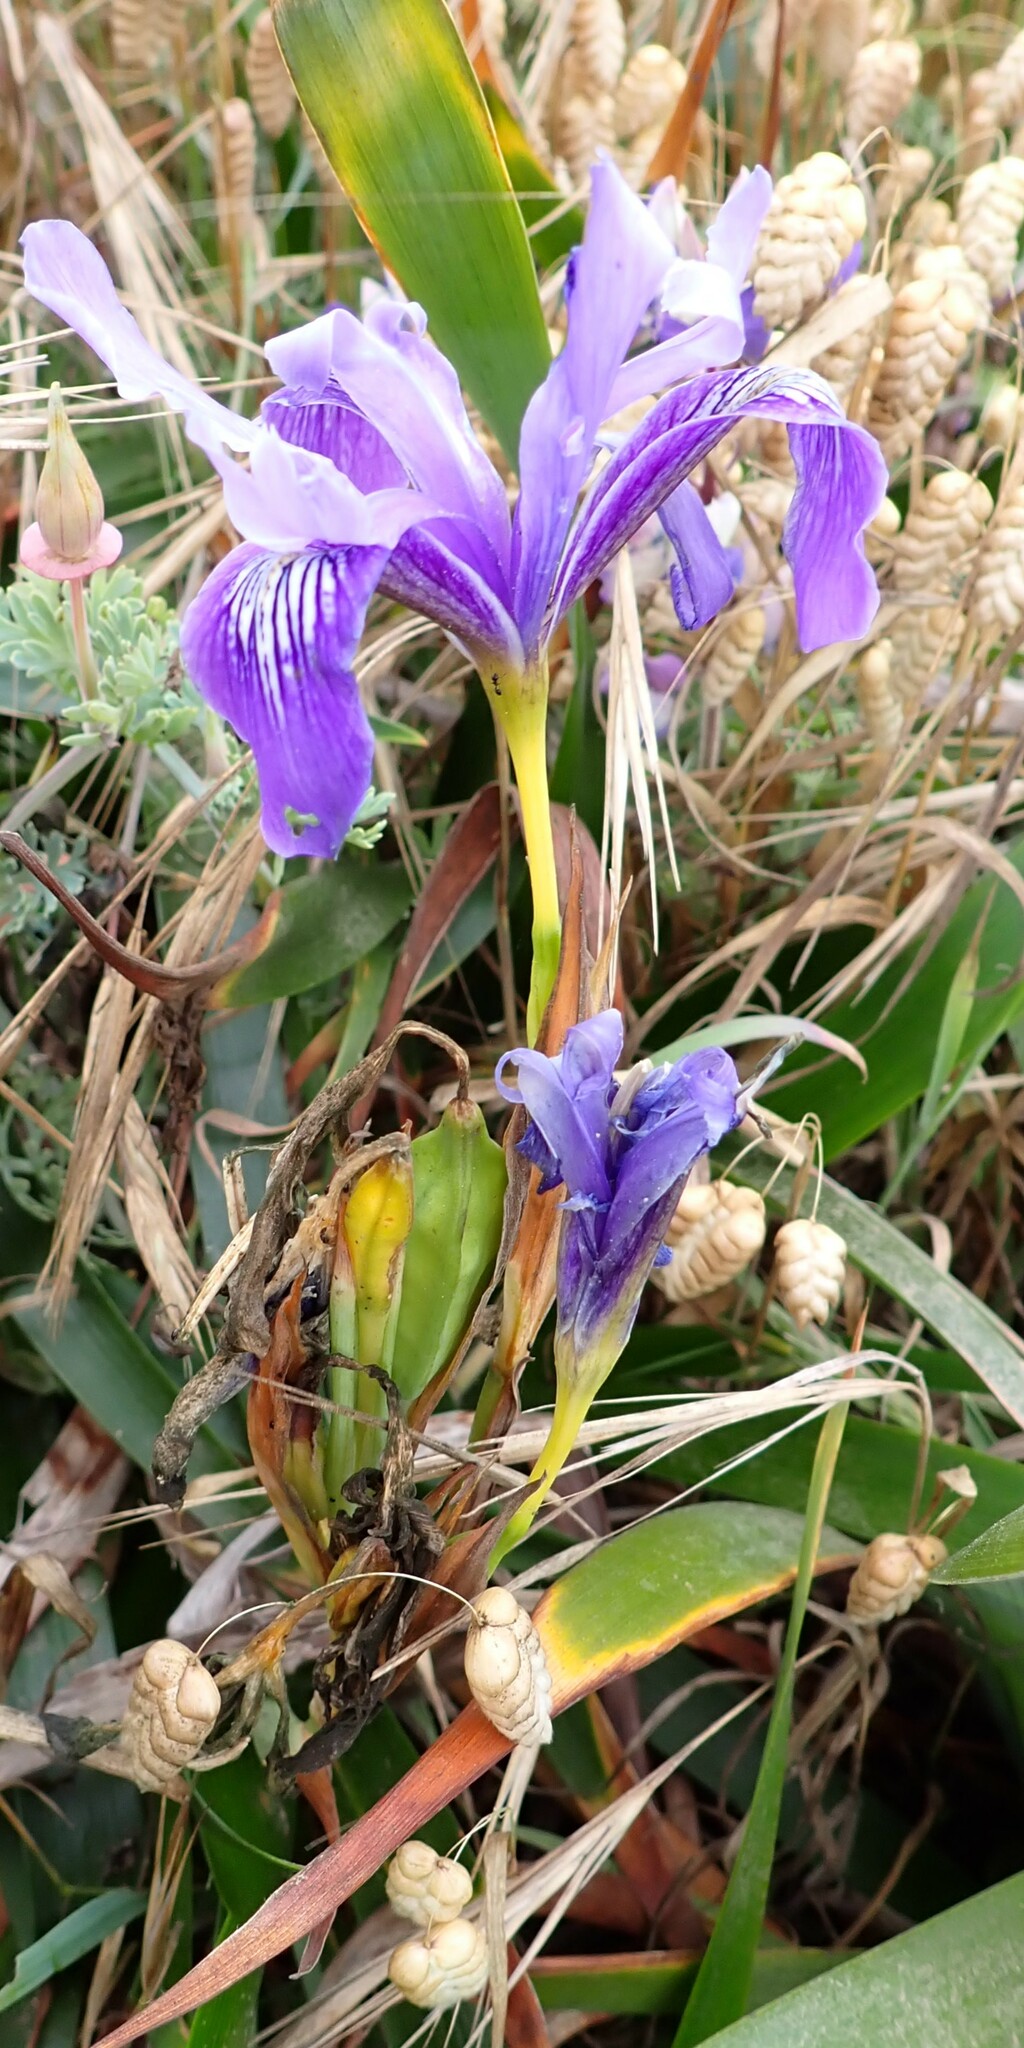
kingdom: Plantae
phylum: Tracheophyta
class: Liliopsida
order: Asparagales
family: Iridaceae
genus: Iris
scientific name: Iris douglasiana
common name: Marin iris
